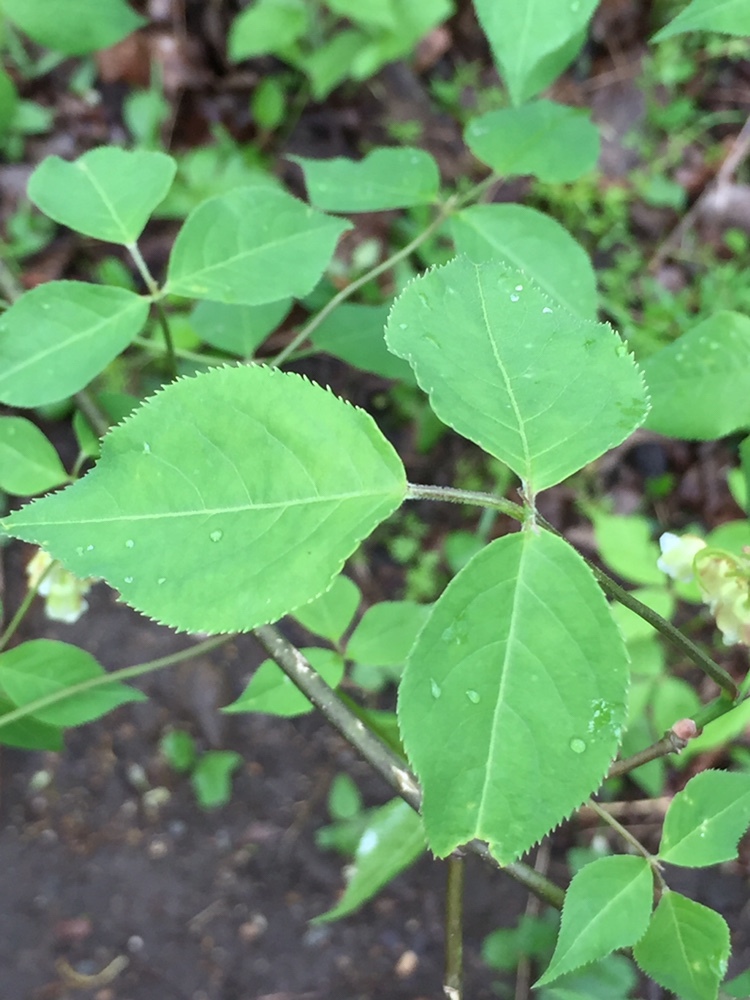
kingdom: Plantae
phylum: Tracheophyta
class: Magnoliopsida
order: Crossosomatales
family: Staphyleaceae
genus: Staphylea
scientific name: Staphylea trifolia
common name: American bladdernut
